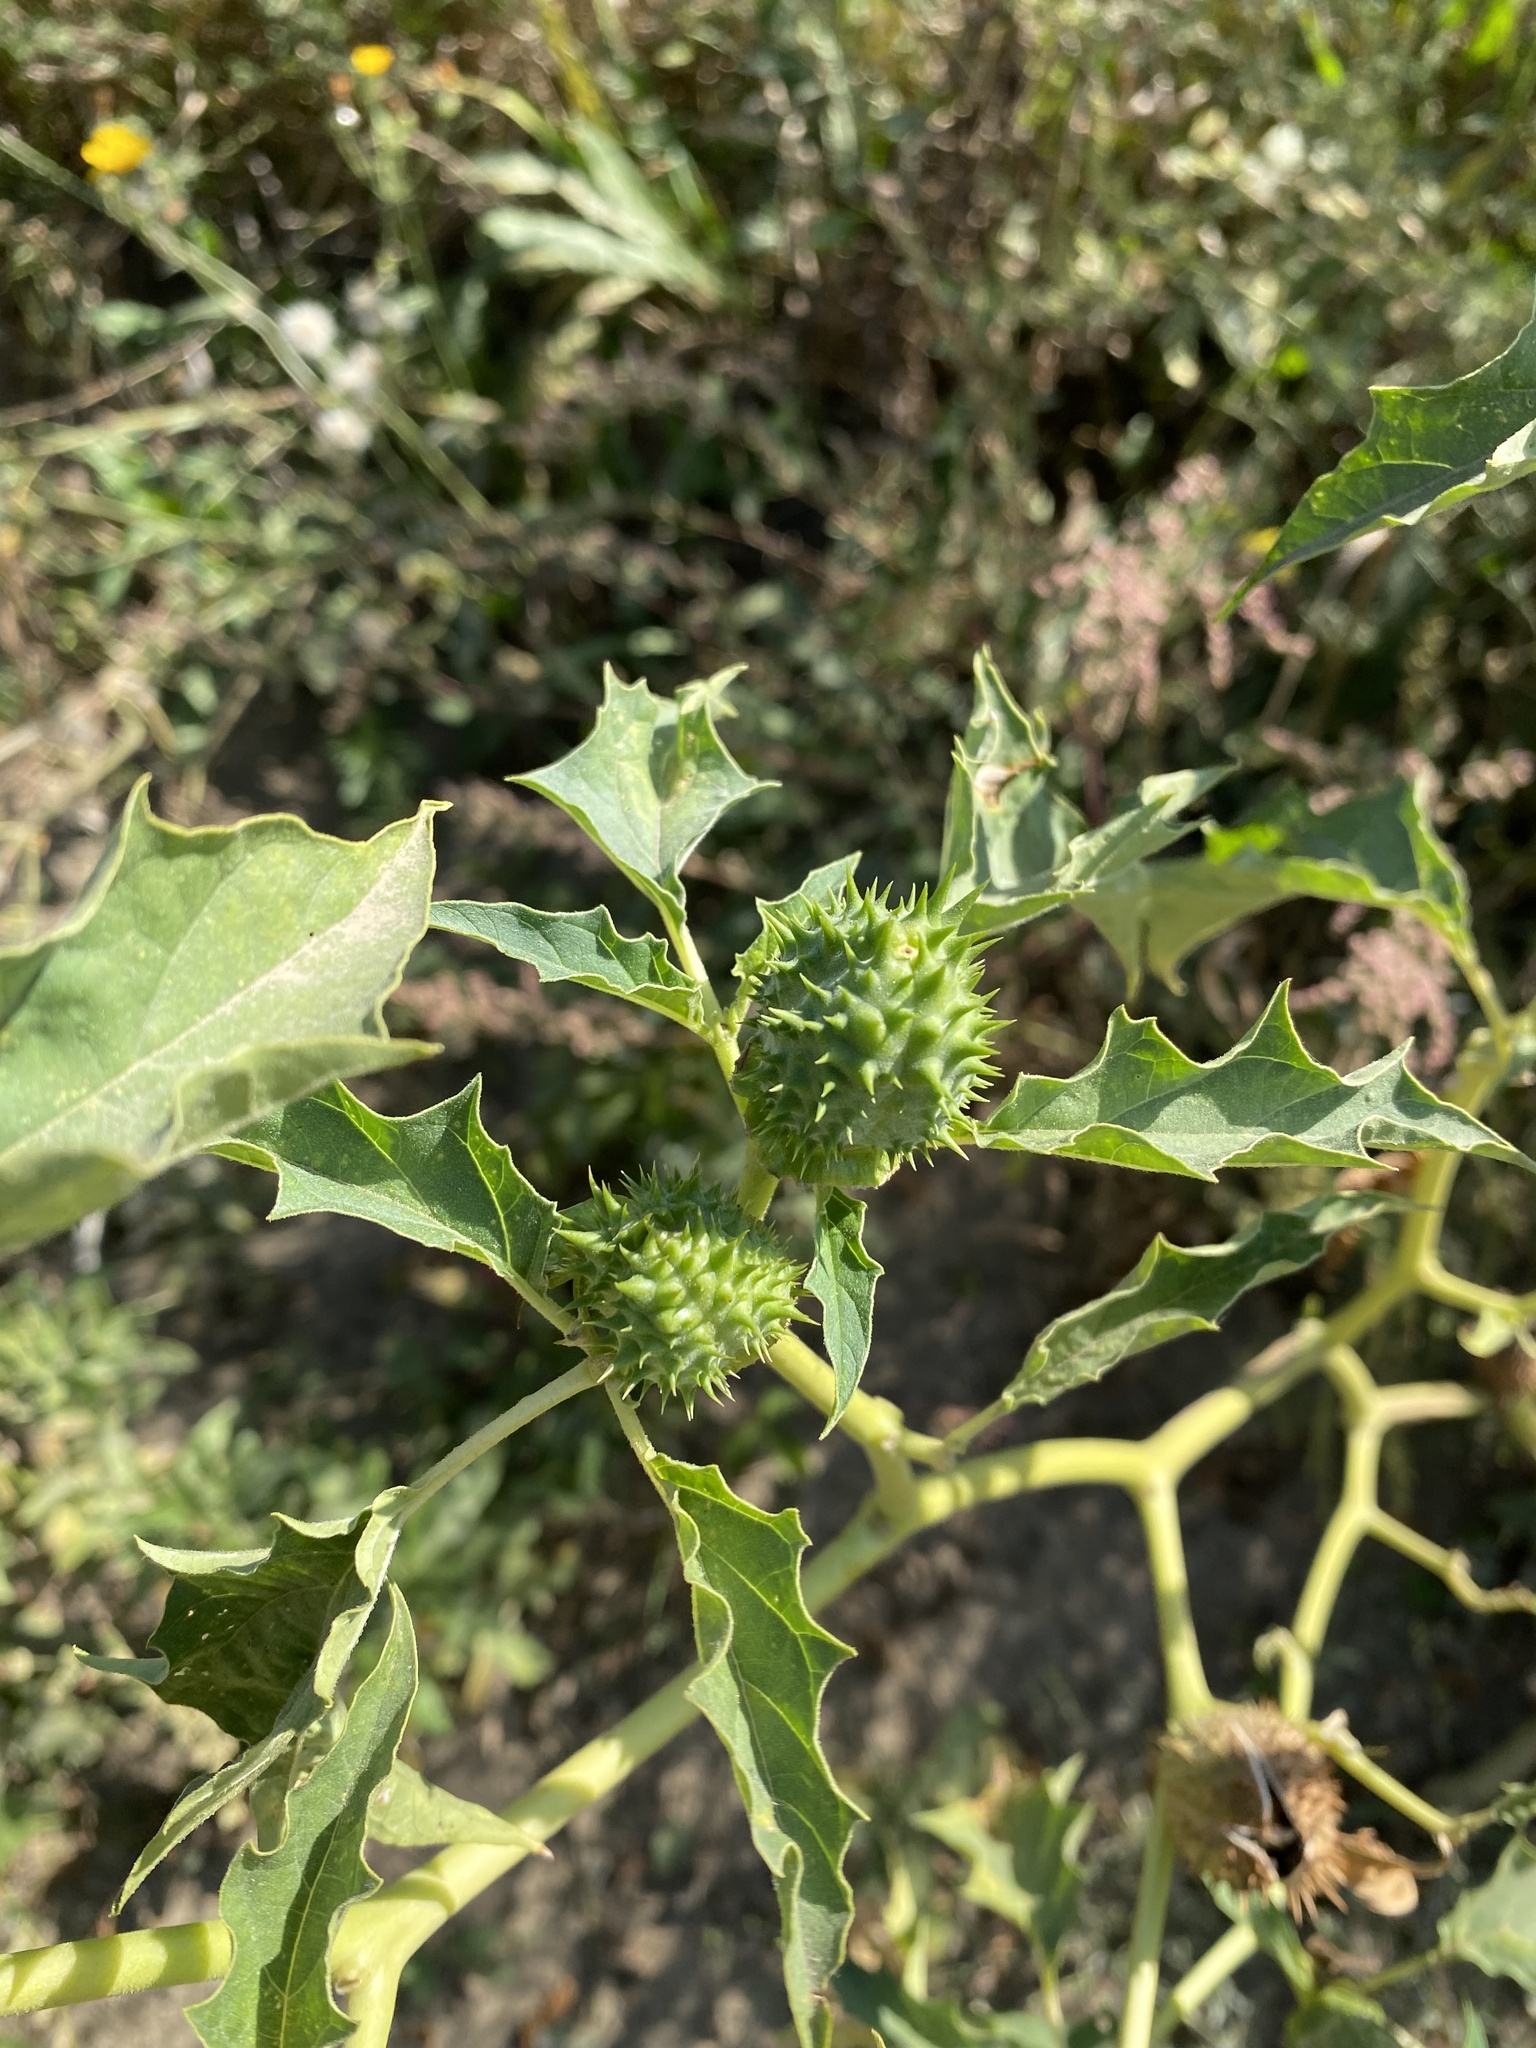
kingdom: Plantae
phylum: Tracheophyta
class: Magnoliopsida
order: Solanales
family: Solanaceae
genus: Datura
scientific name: Datura stramonium
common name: Thorn-apple
